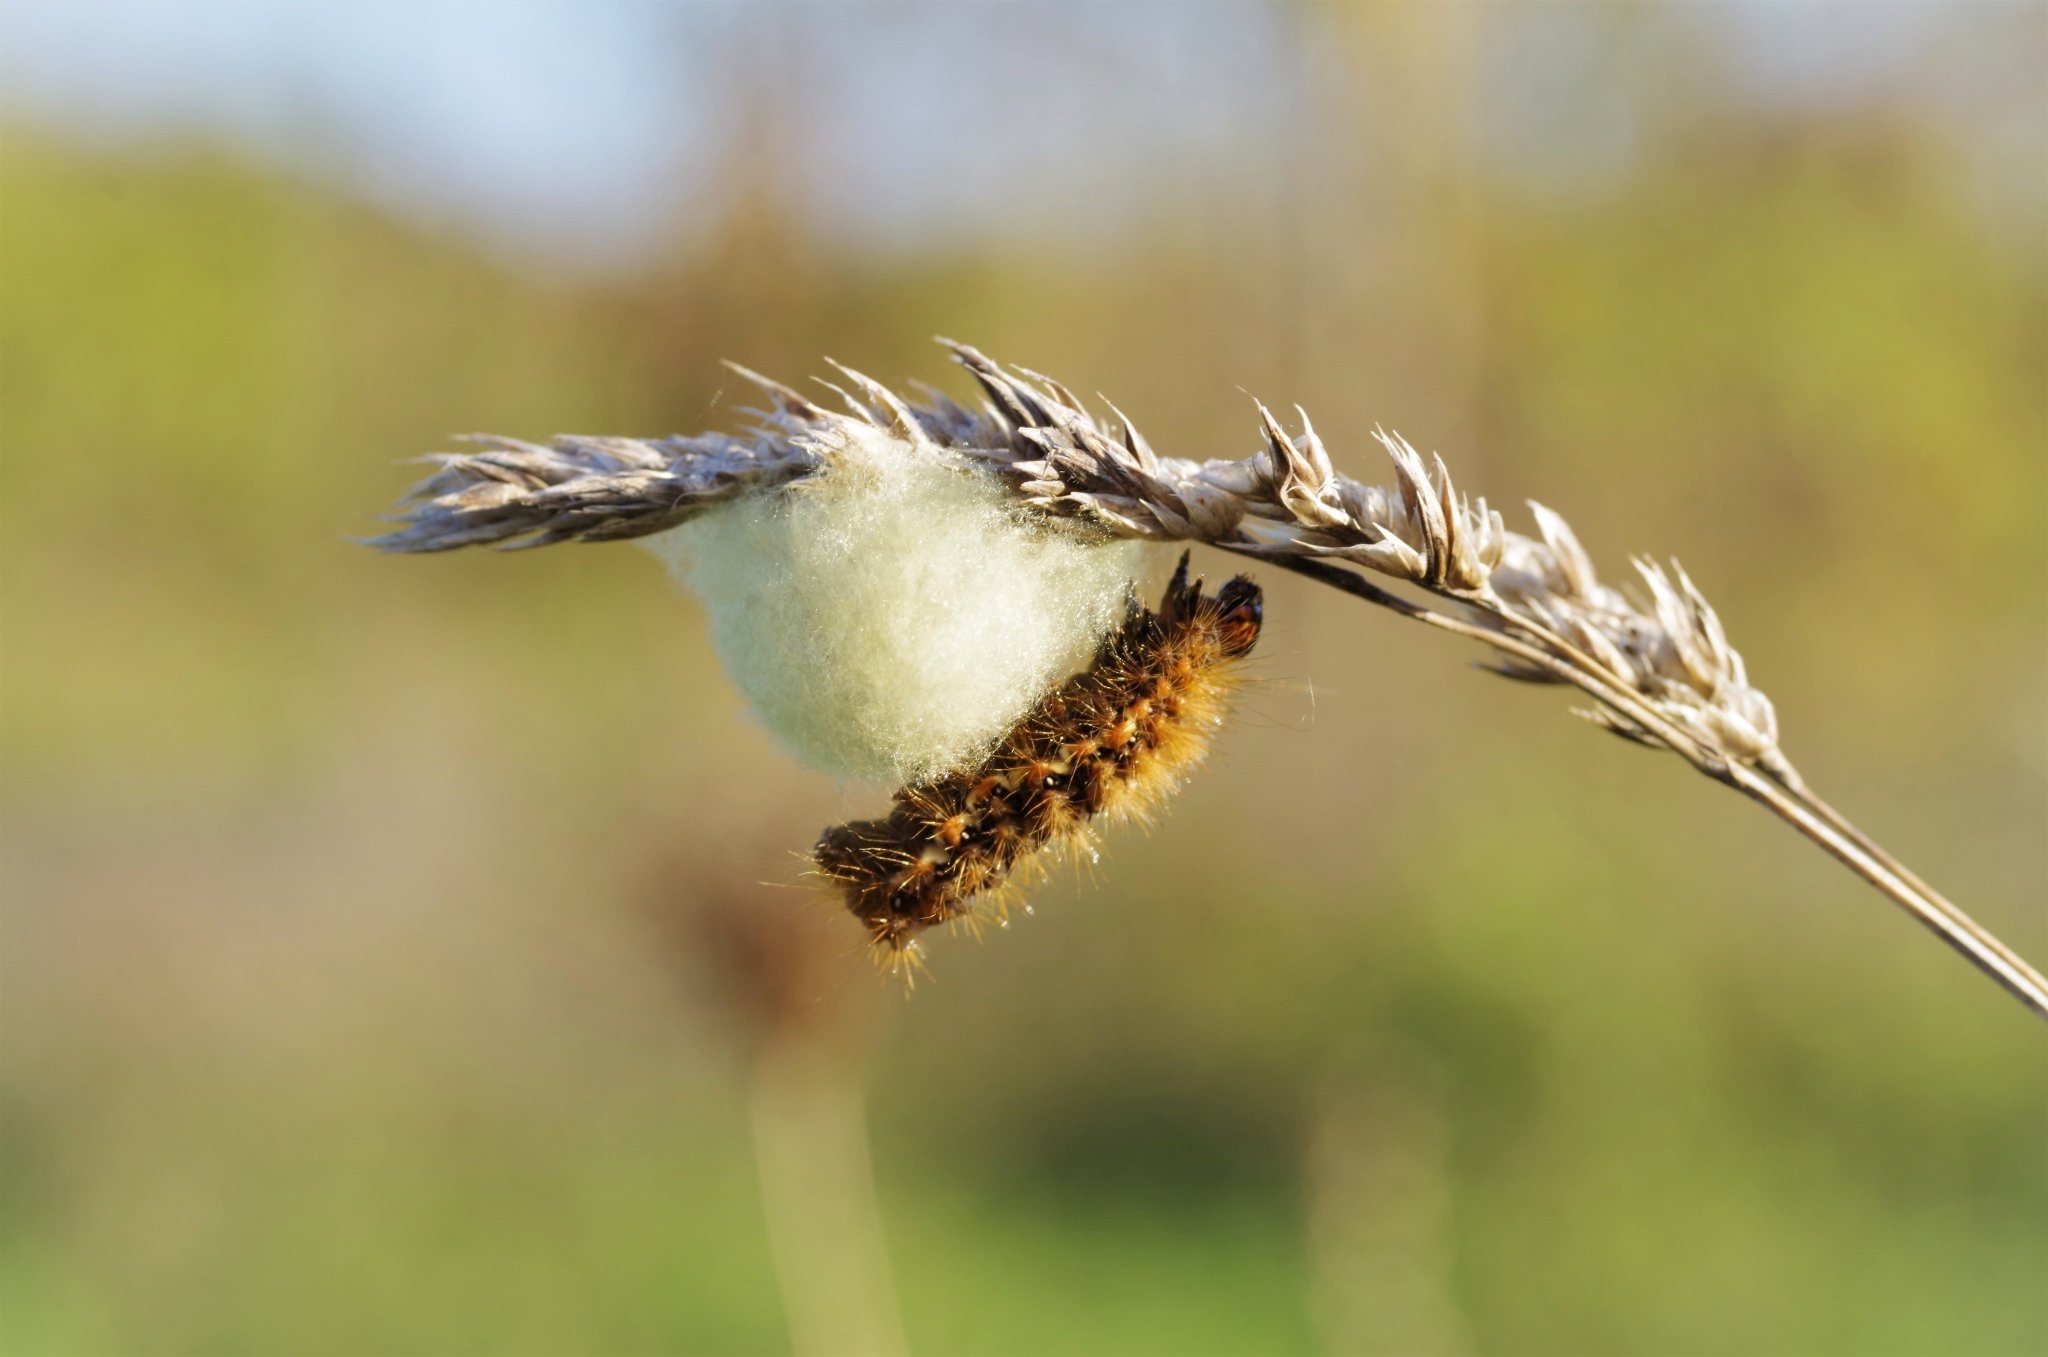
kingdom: Animalia
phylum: Arthropoda
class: Insecta
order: Lepidoptera
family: Noctuidae
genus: Acronicta
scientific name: Acronicta rumicis
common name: Knot grass
